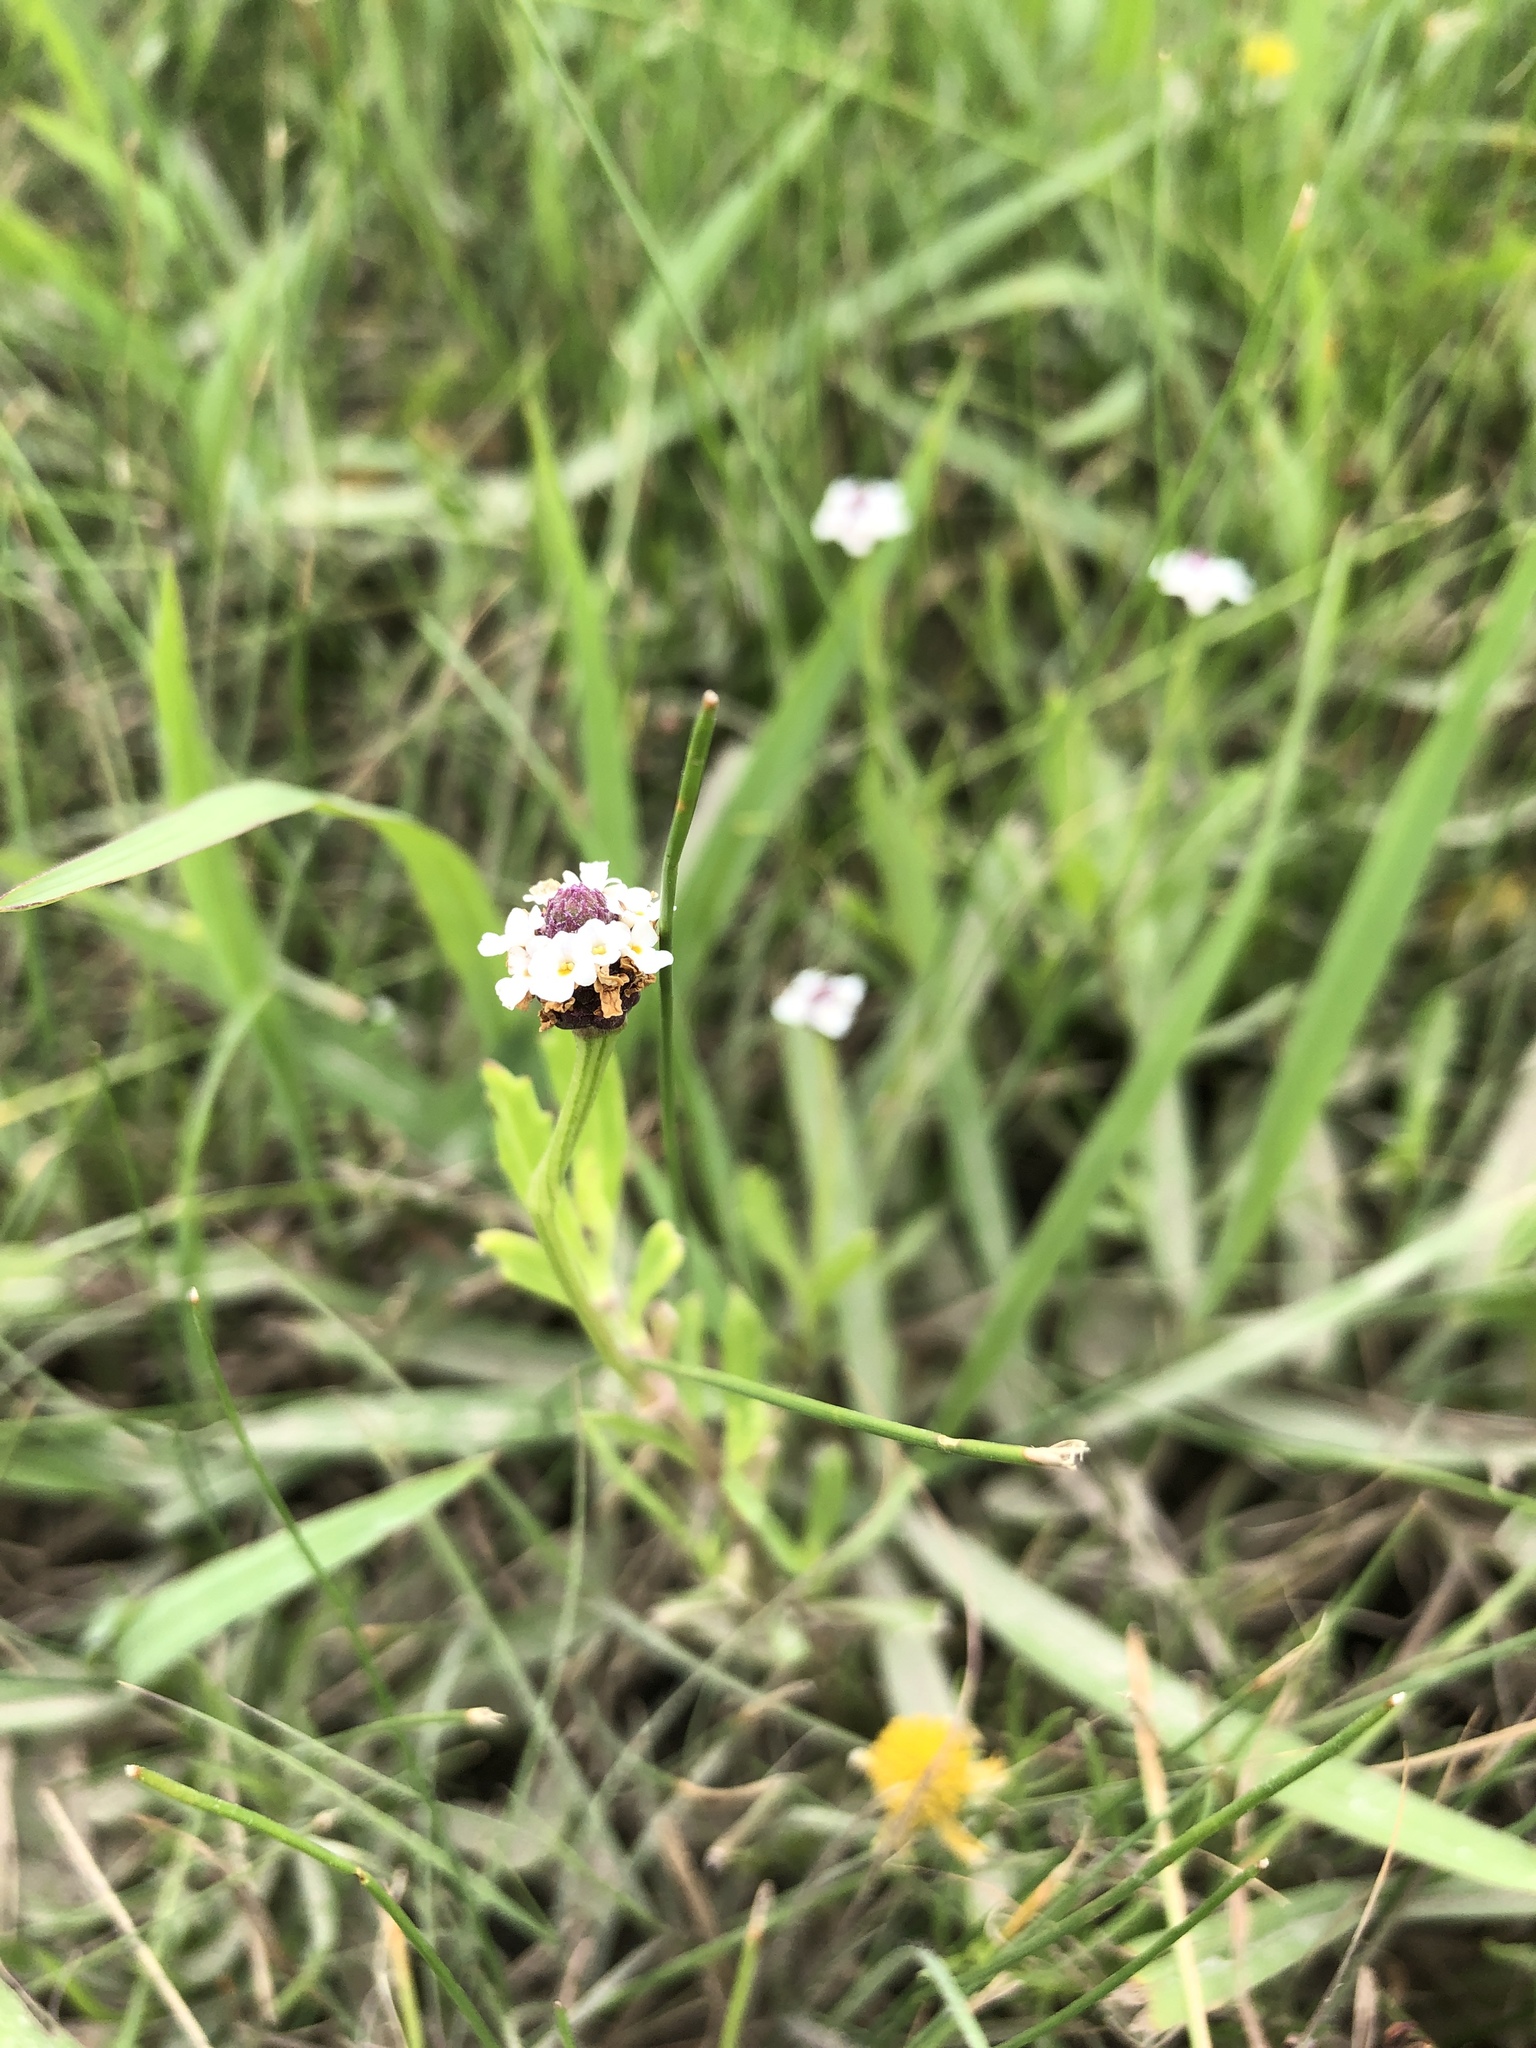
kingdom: Plantae
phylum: Tracheophyta
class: Magnoliopsida
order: Lamiales
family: Verbenaceae
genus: Phyla
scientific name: Phyla nodiflora
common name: Frogfruit
